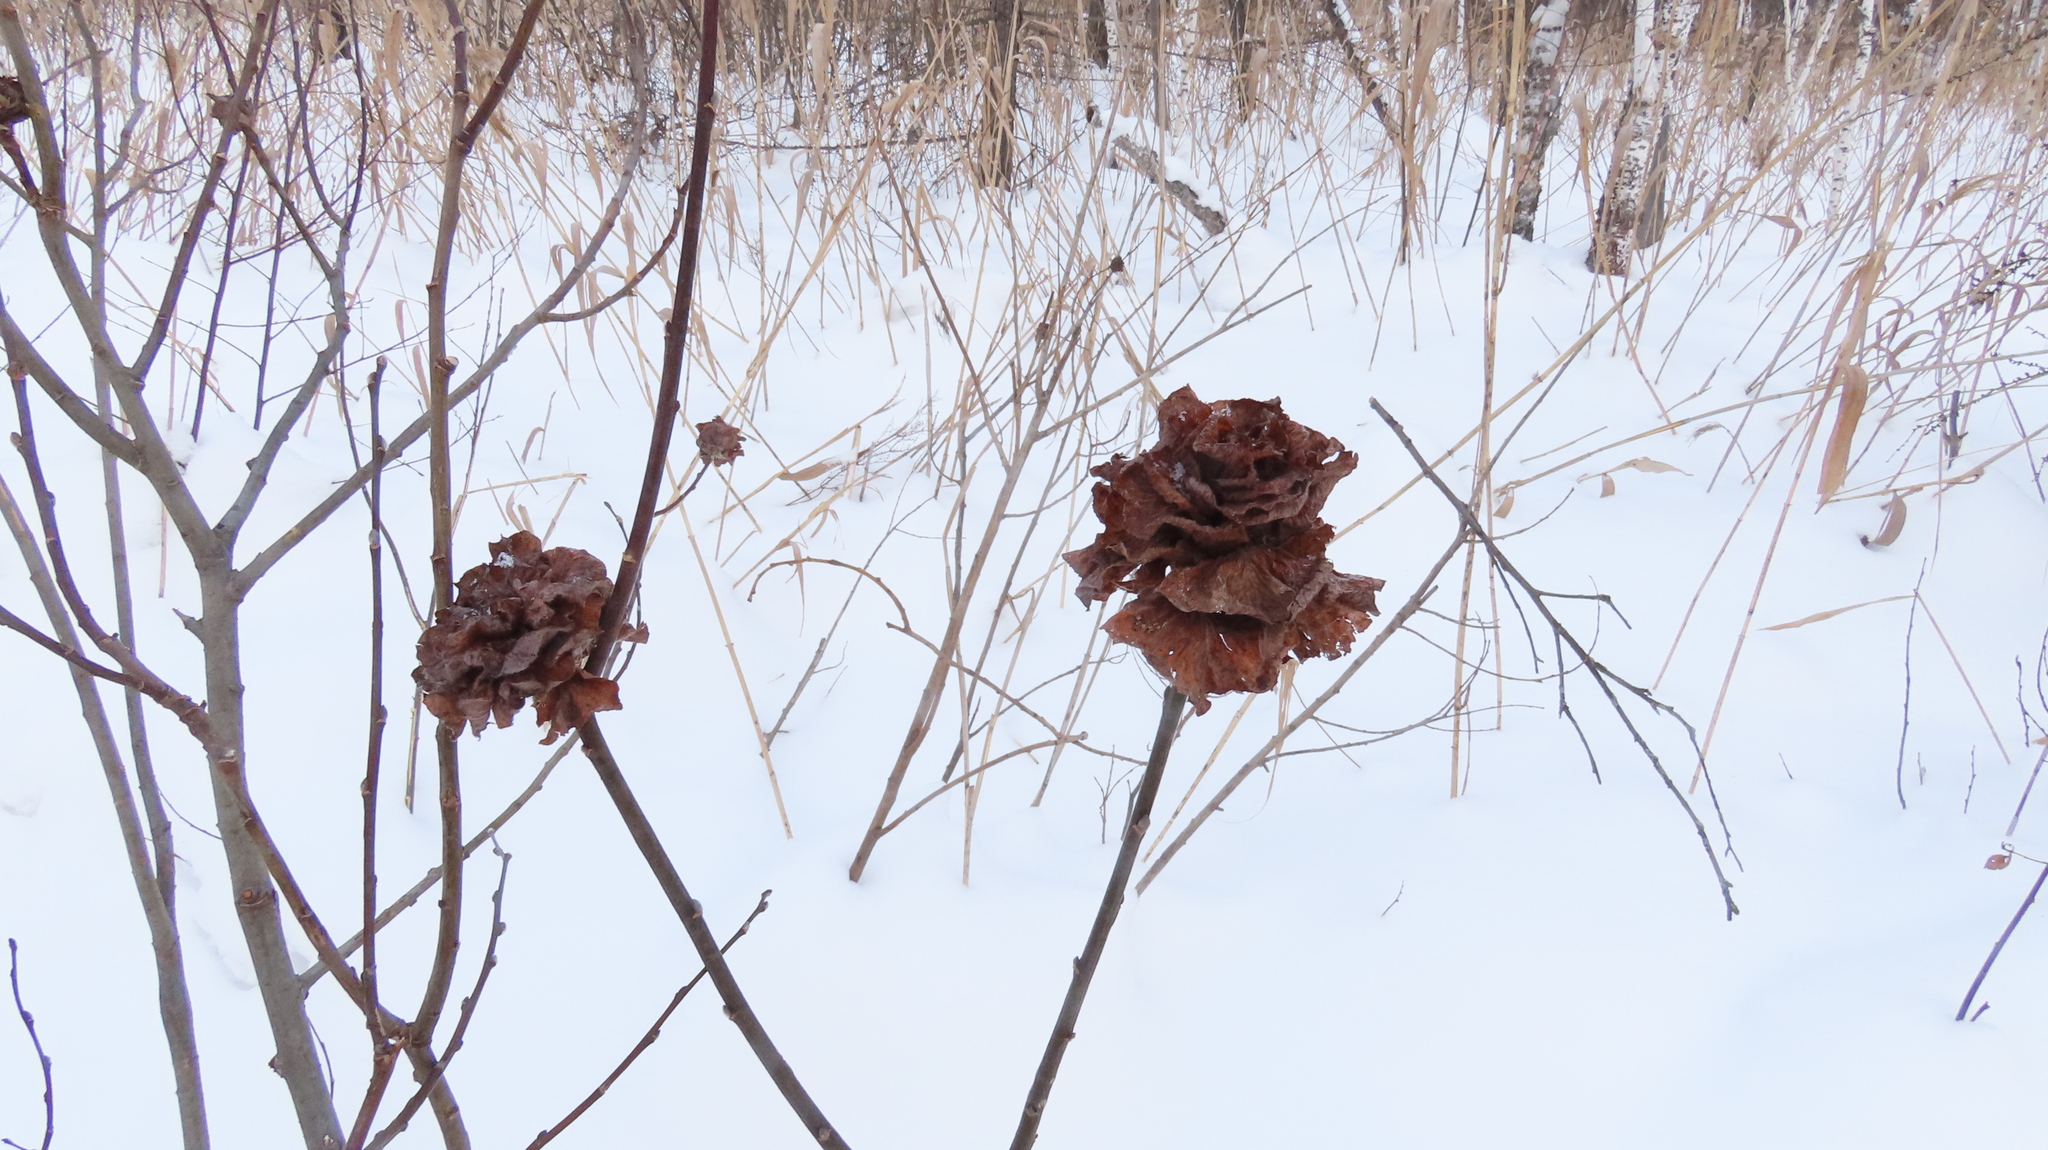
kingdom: Animalia
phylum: Arthropoda
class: Insecta
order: Diptera
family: Cecidomyiidae
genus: Rabdophaga
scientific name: Rabdophaga rosaria
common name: Willow rose gall midge
